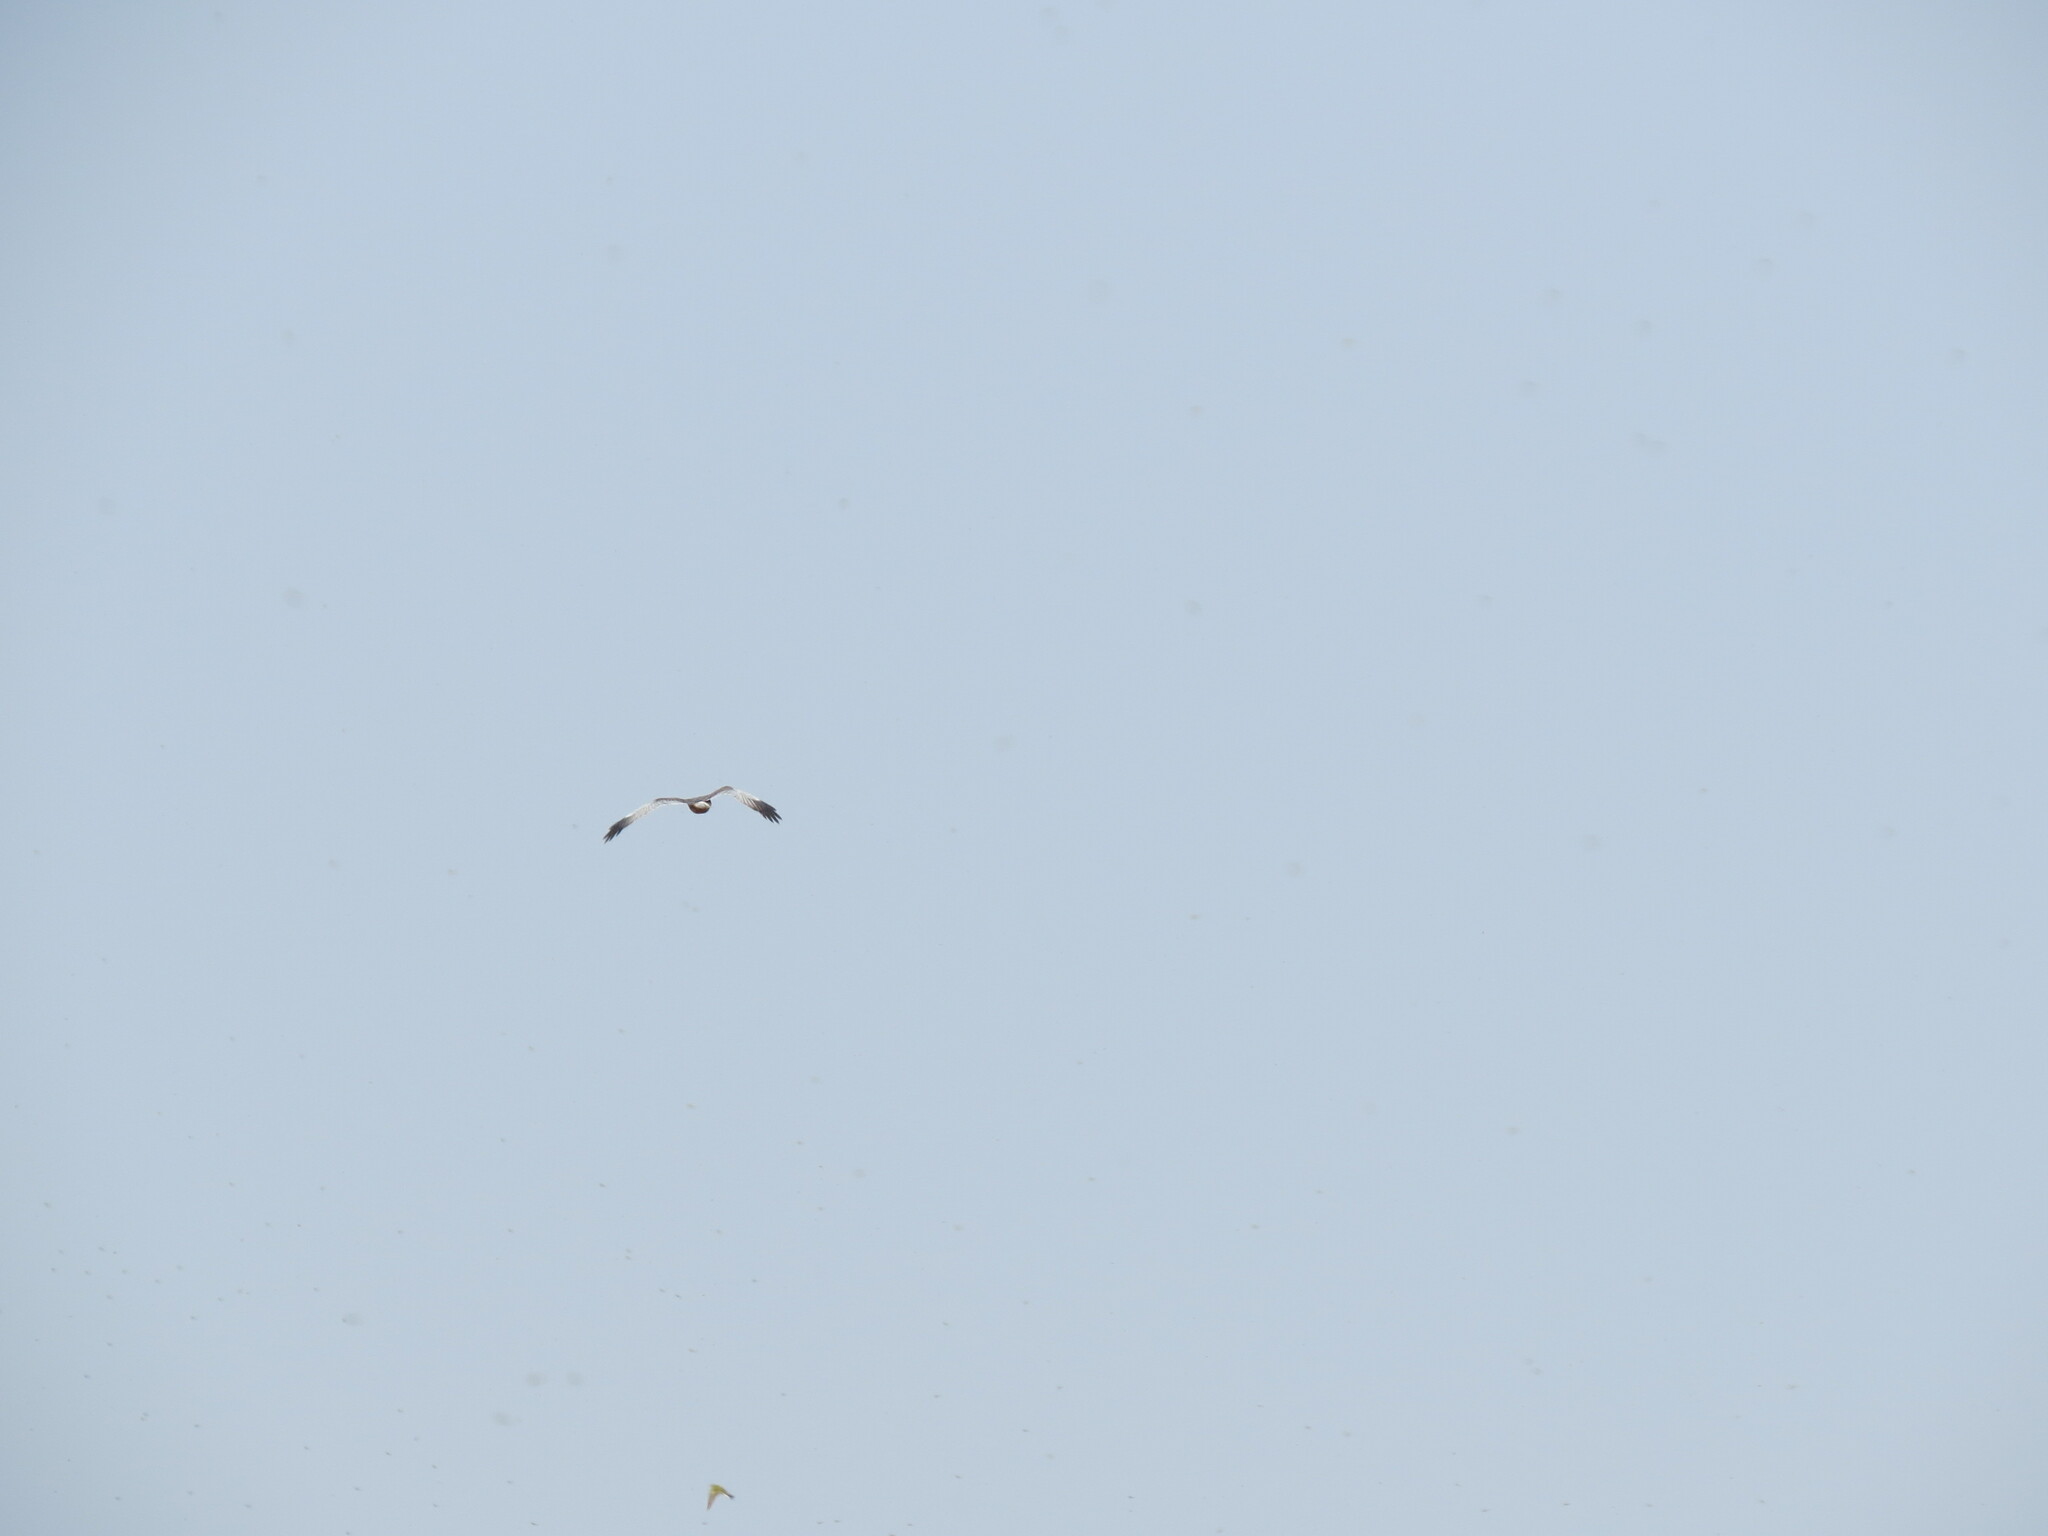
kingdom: Animalia
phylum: Chordata
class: Aves
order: Accipitriformes
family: Accipitridae
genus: Circus
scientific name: Circus aeruginosus
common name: Western marsh harrier
